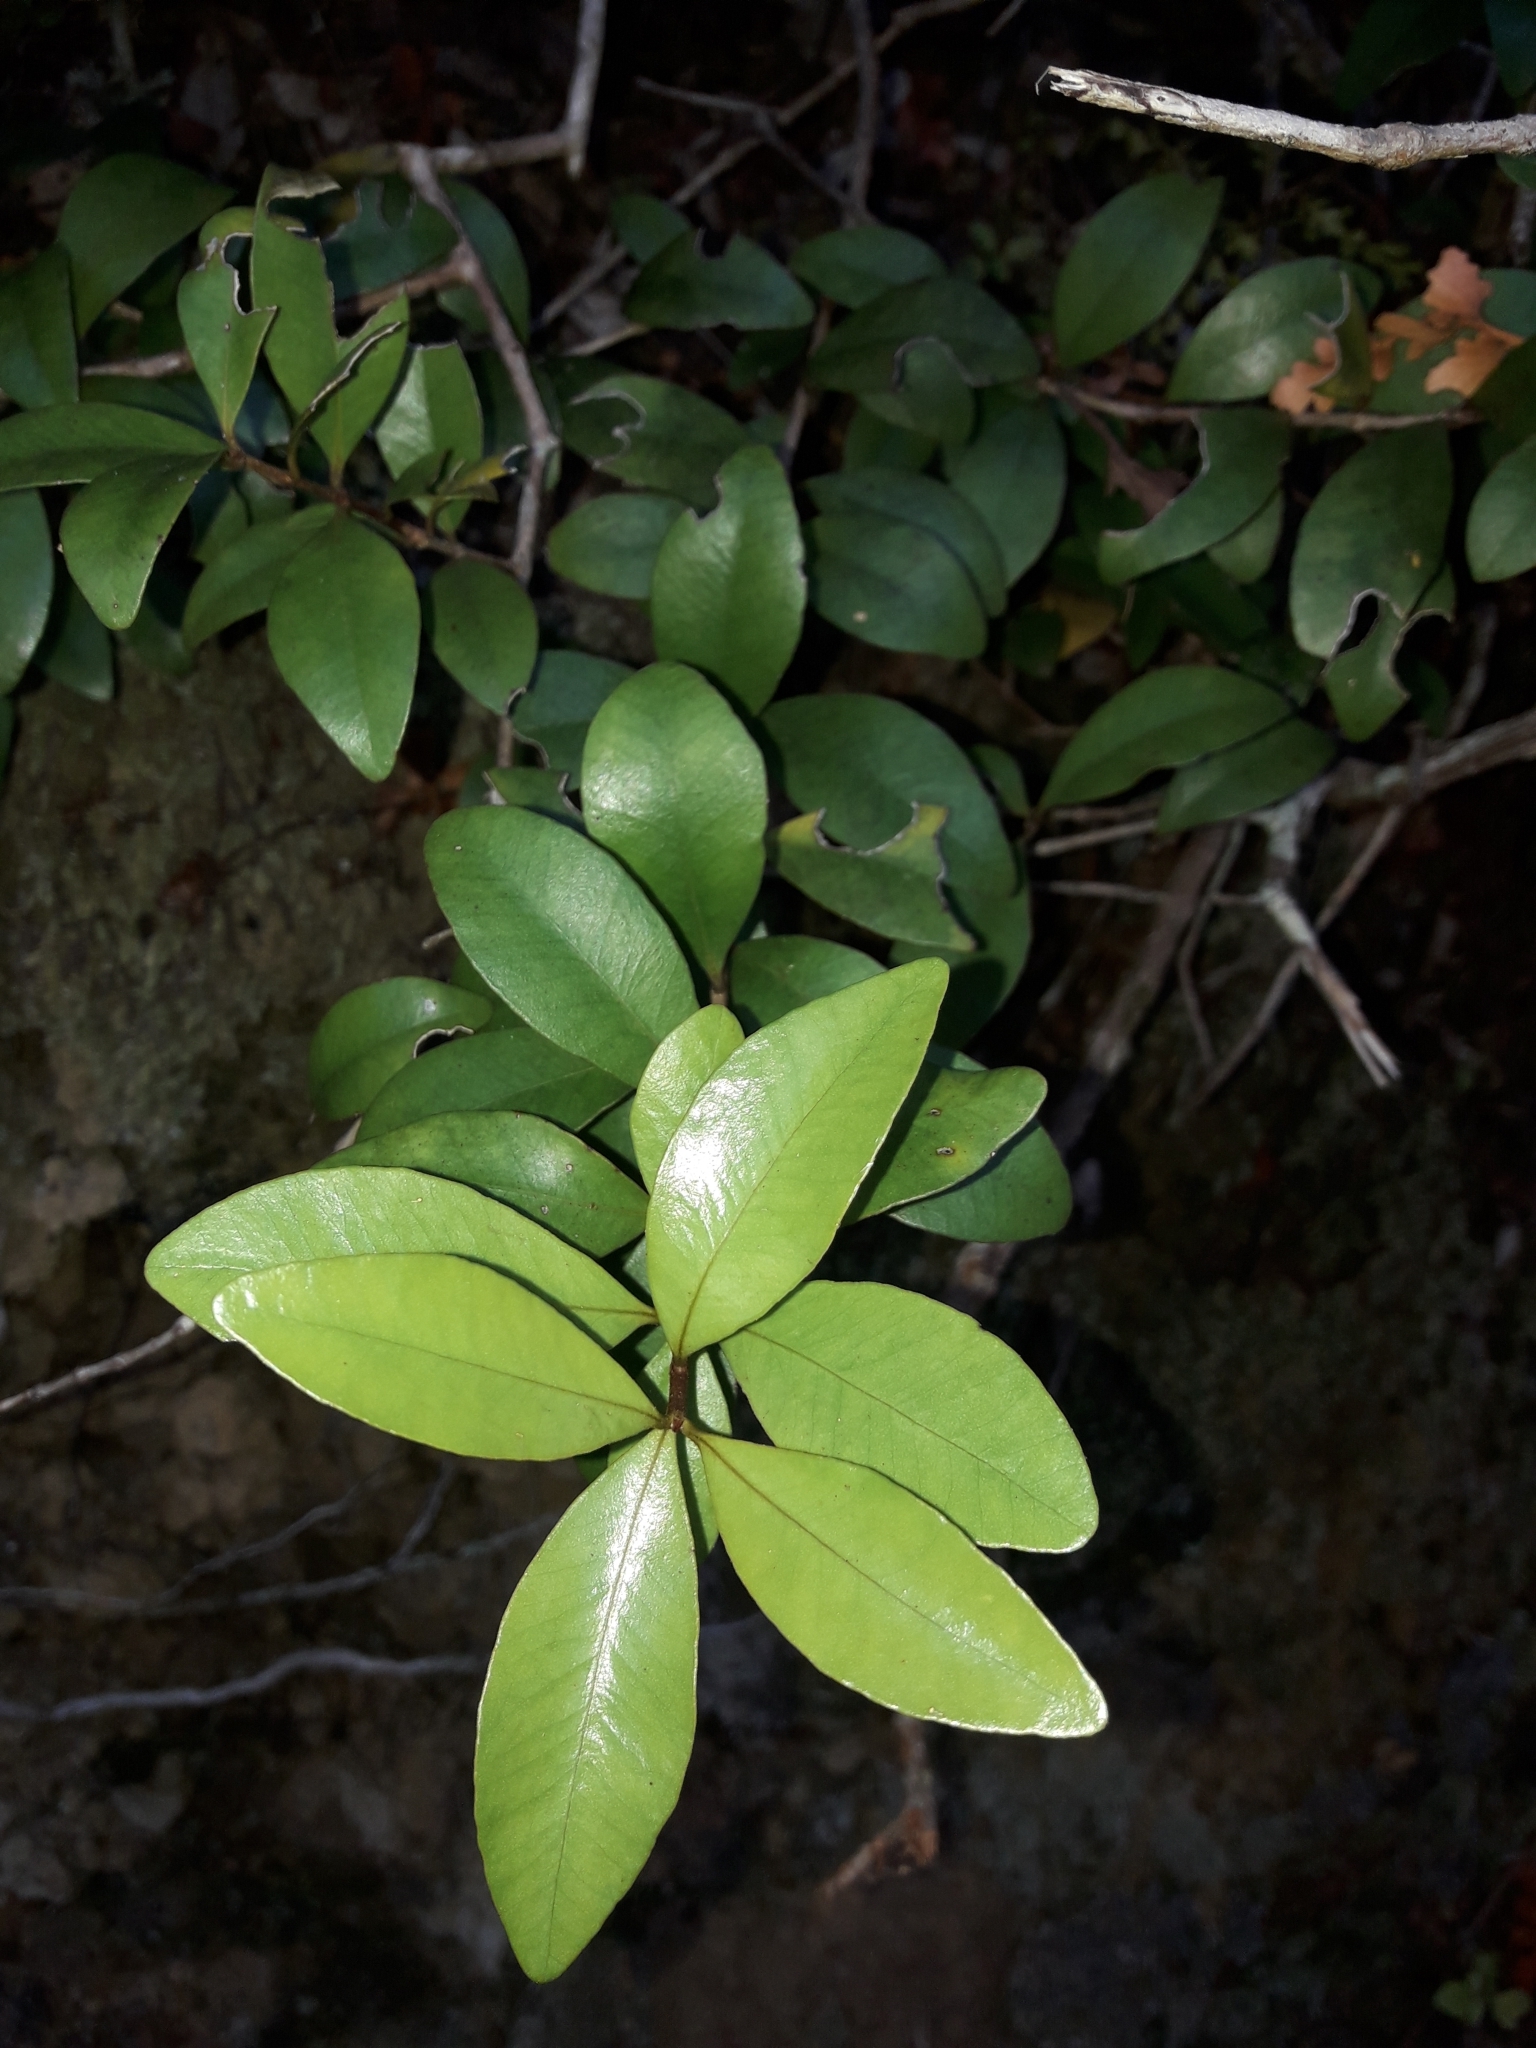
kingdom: Plantae
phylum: Tracheophyta
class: Magnoliopsida
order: Myrtales
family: Myrtaceae
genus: Metrosideros
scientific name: Metrosideros fulgens
